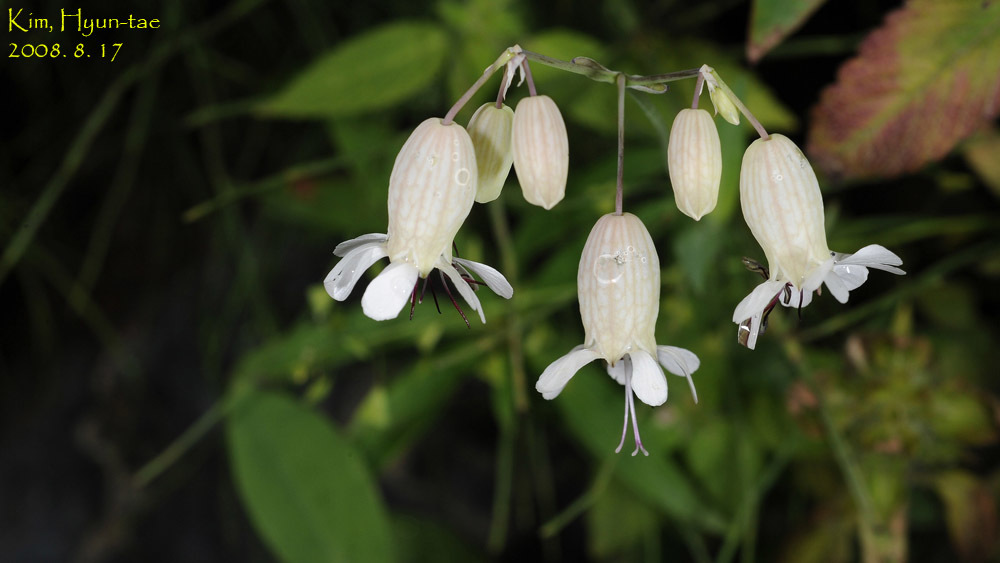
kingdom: Plantae
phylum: Tracheophyta
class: Magnoliopsida
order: Caryophyllales
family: Caryophyllaceae
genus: Silene
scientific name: Silene vulgaris
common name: Bladder campion
